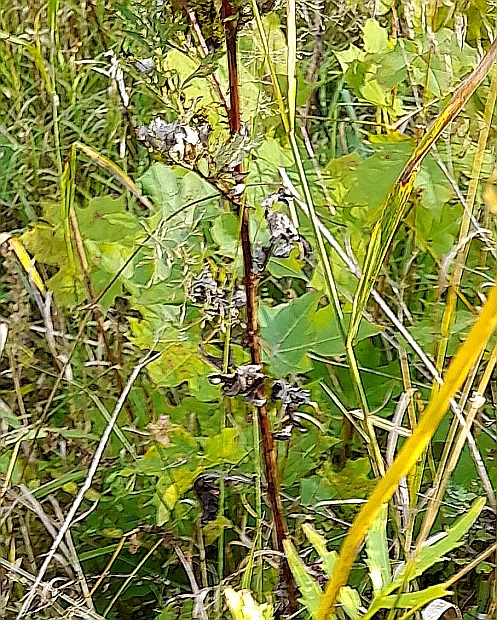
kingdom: Plantae
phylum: Tracheophyta
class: Magnoliopsida
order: Sapindales
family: Sapindaceae
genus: Acer
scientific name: Acer platanoides
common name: Norway maple
